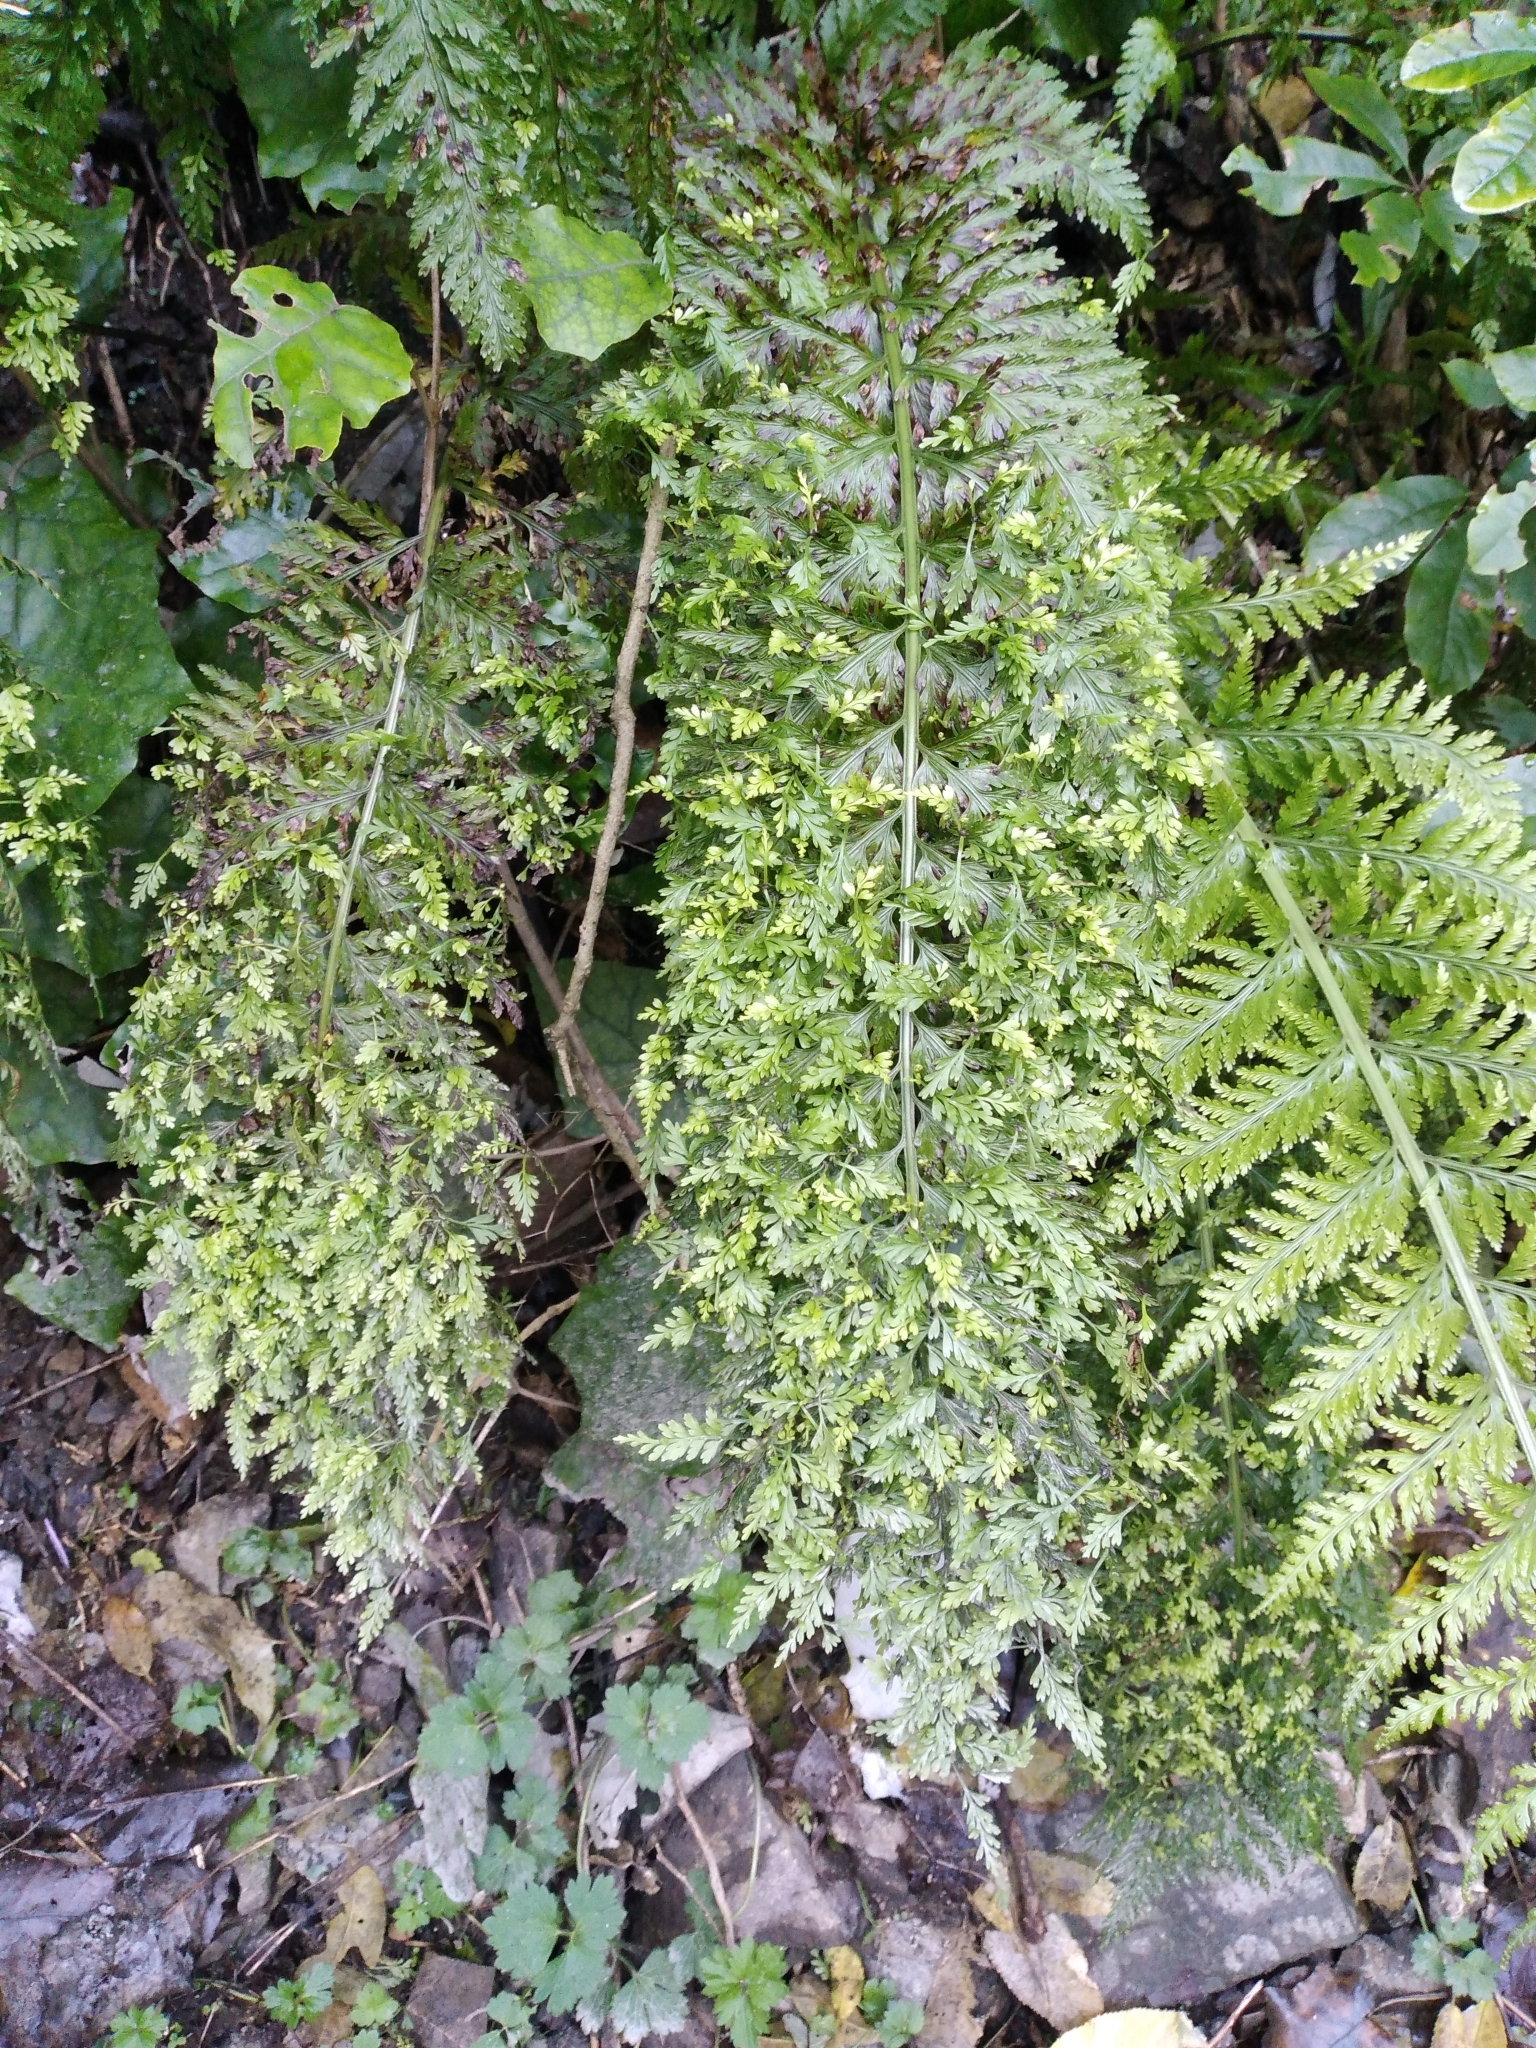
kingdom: Plantae
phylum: Tracheophyta
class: Polypodiopsida
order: Polypodiales
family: Aspleniaceae
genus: Asplenium
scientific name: Asplenium bulbiferum
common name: Mother fern
